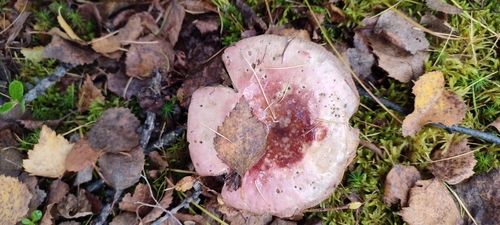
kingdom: Fungi
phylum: Basidiomycota
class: Agaricomycetes
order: Russulales
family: Russulaceae
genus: Russula
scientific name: Russula
